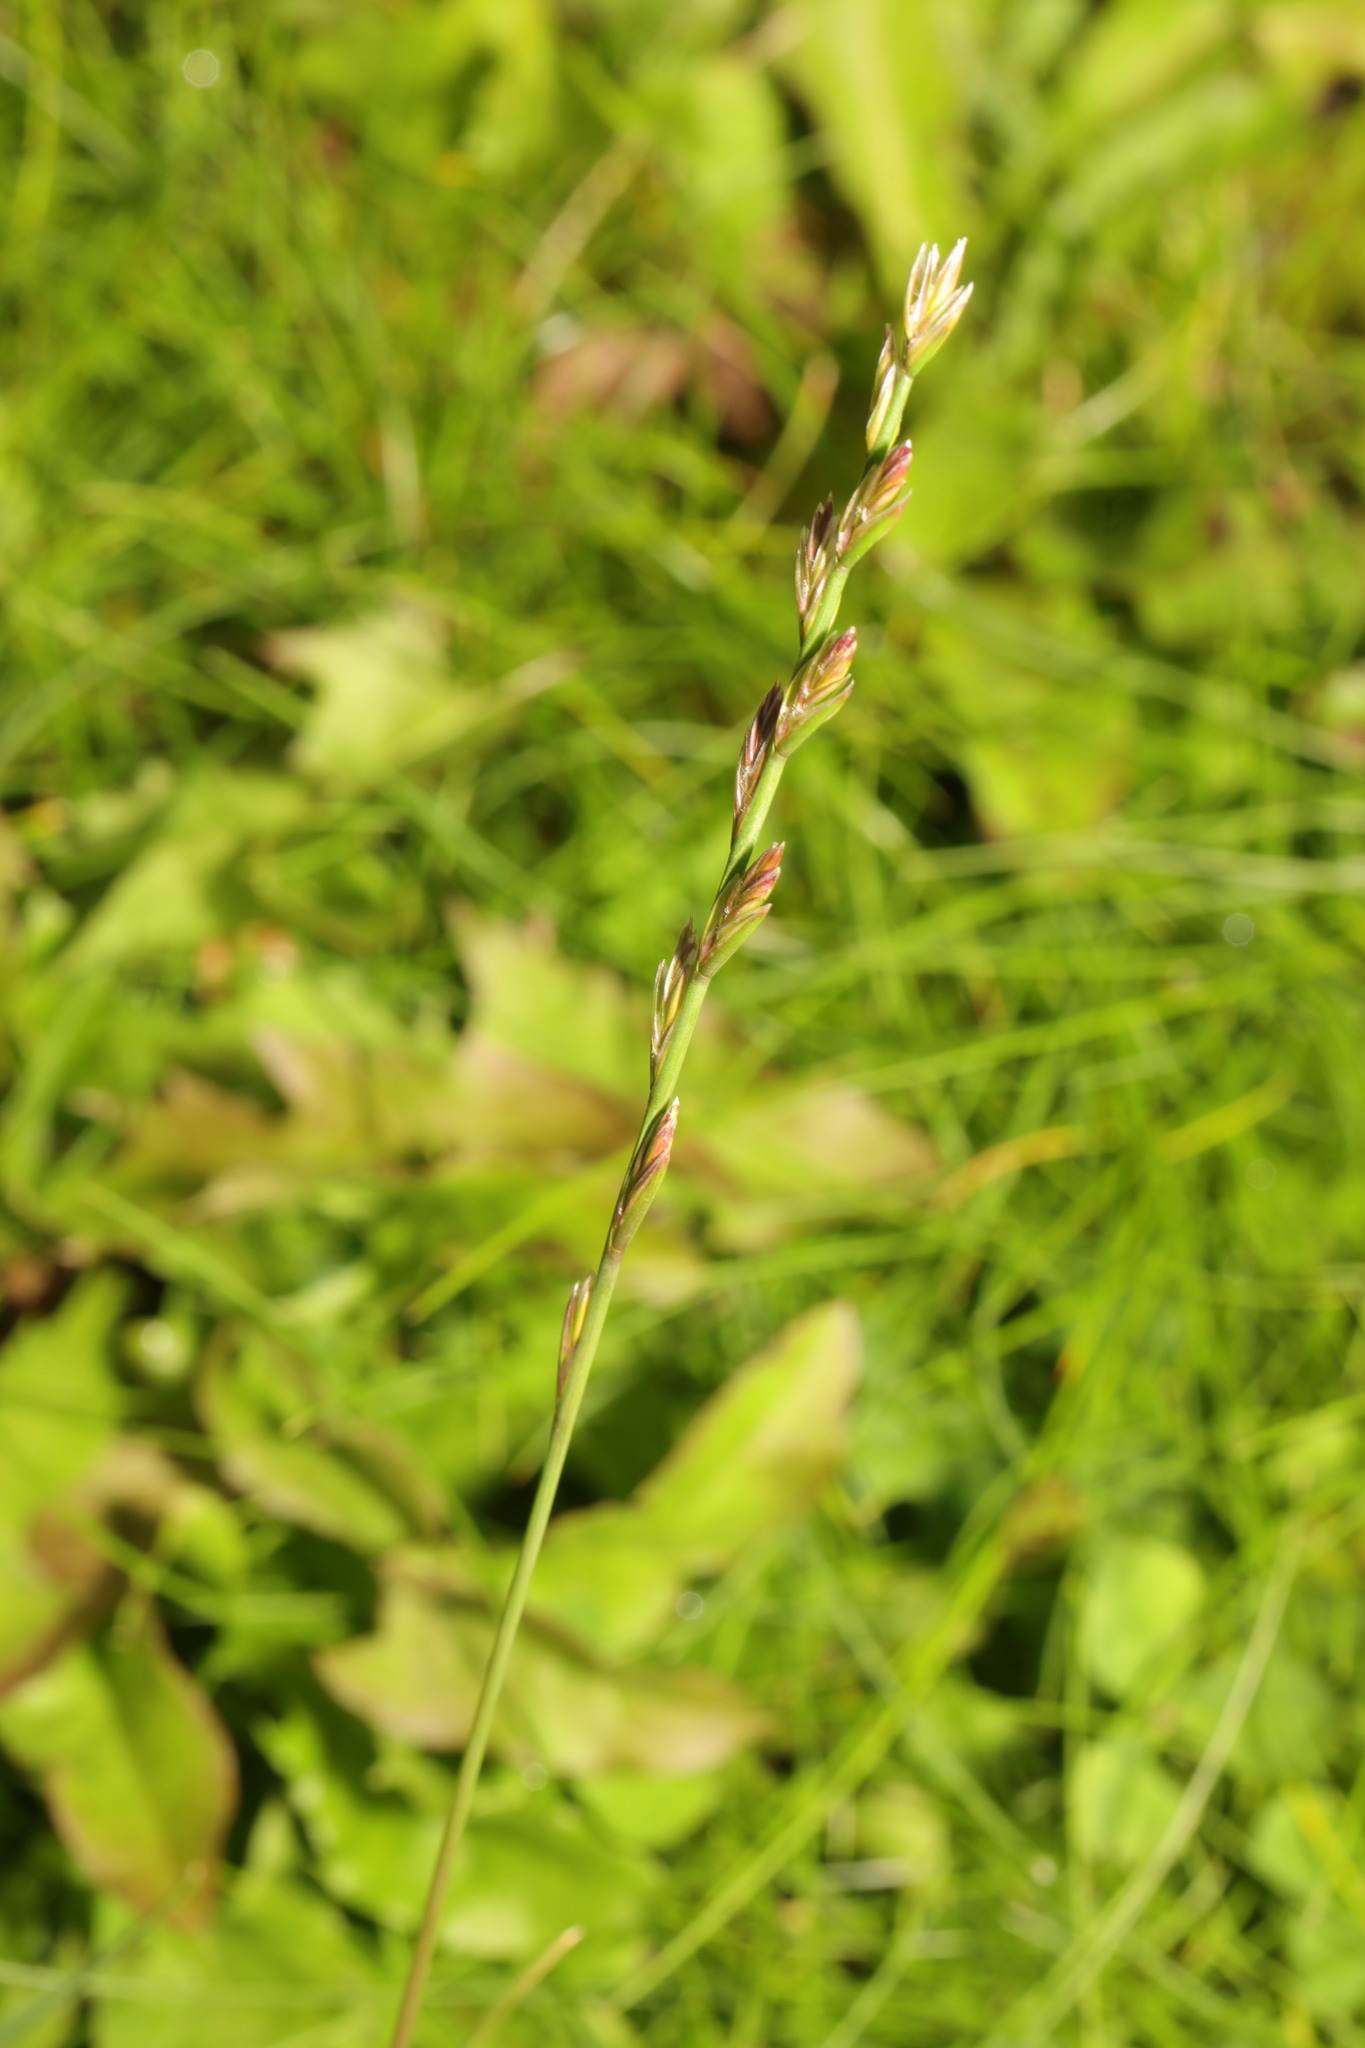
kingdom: Plantae
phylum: Tracheophyta
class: Liliopsida
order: Poales
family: Poaceae
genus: Lolium
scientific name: Lolium perenne
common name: Perennial ryegrass
